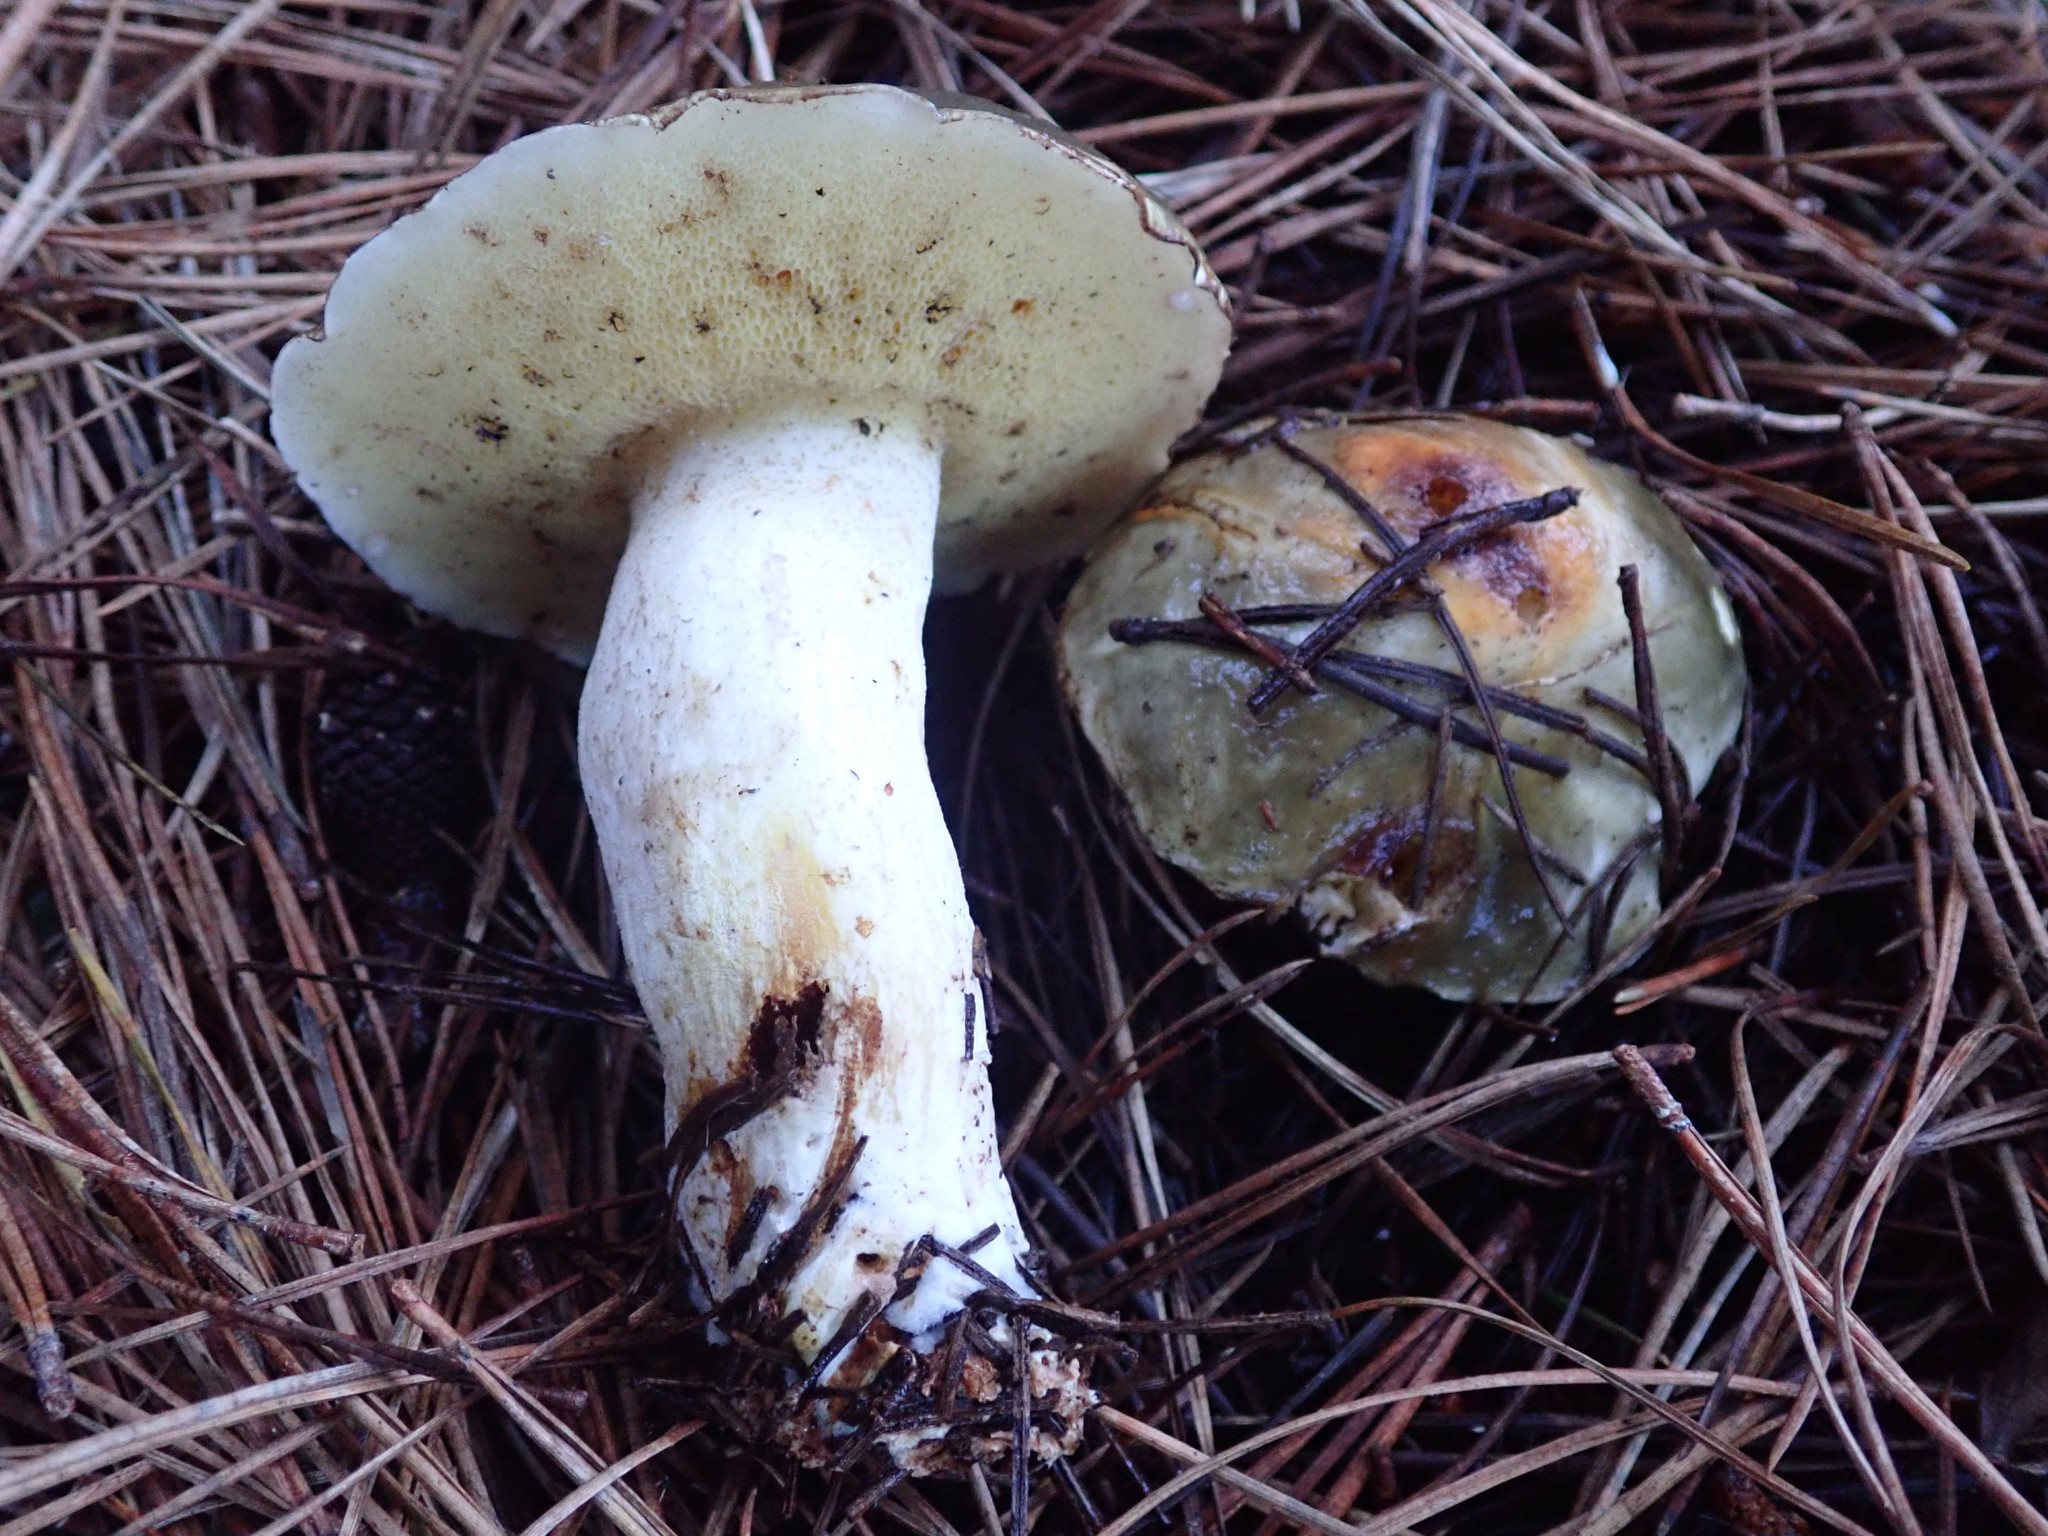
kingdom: Fungi
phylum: Basidiomycota
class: Agaricomycetes
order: Boletales
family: Suillaceae
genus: Suillus
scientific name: Suillus pungens
